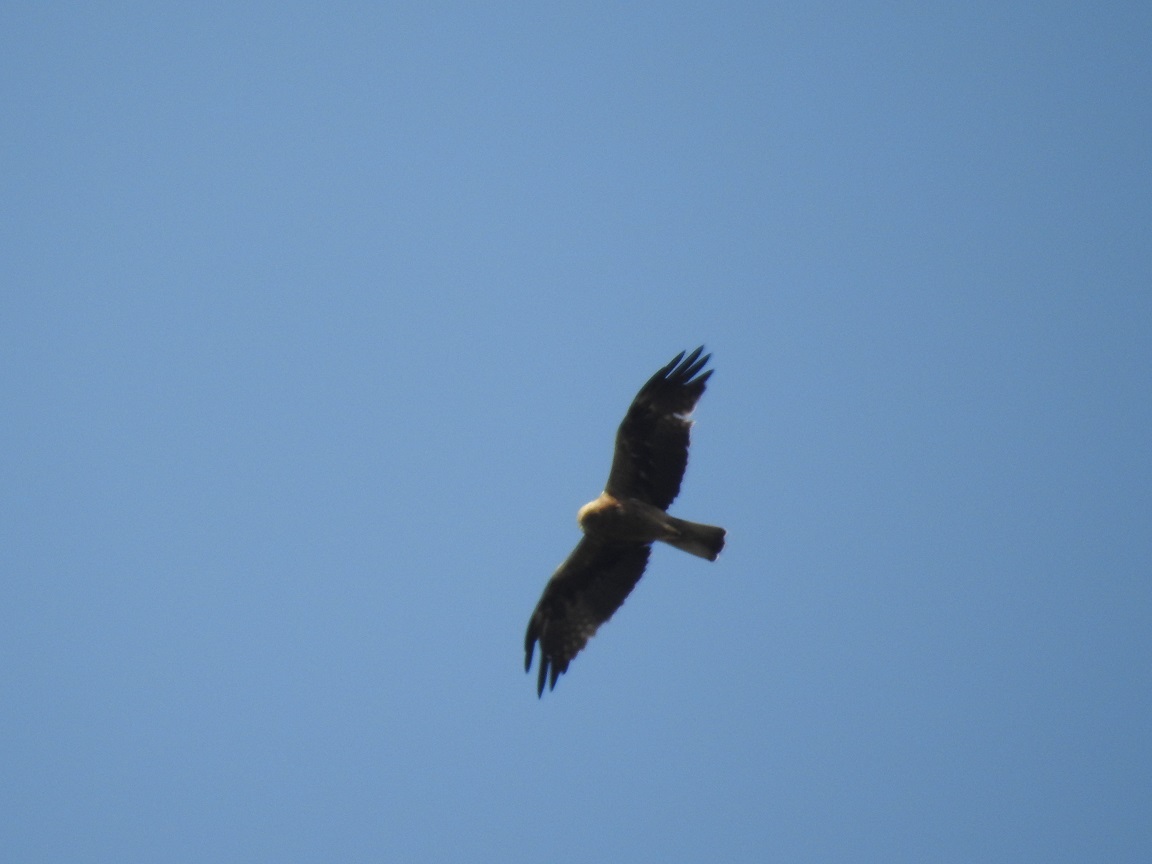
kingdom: Animalia
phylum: Chordata
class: Aves
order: Accipitriformes
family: Accipitridae
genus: Hieraaetus
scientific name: Hieraaetus pennatus
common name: Booted eagle
